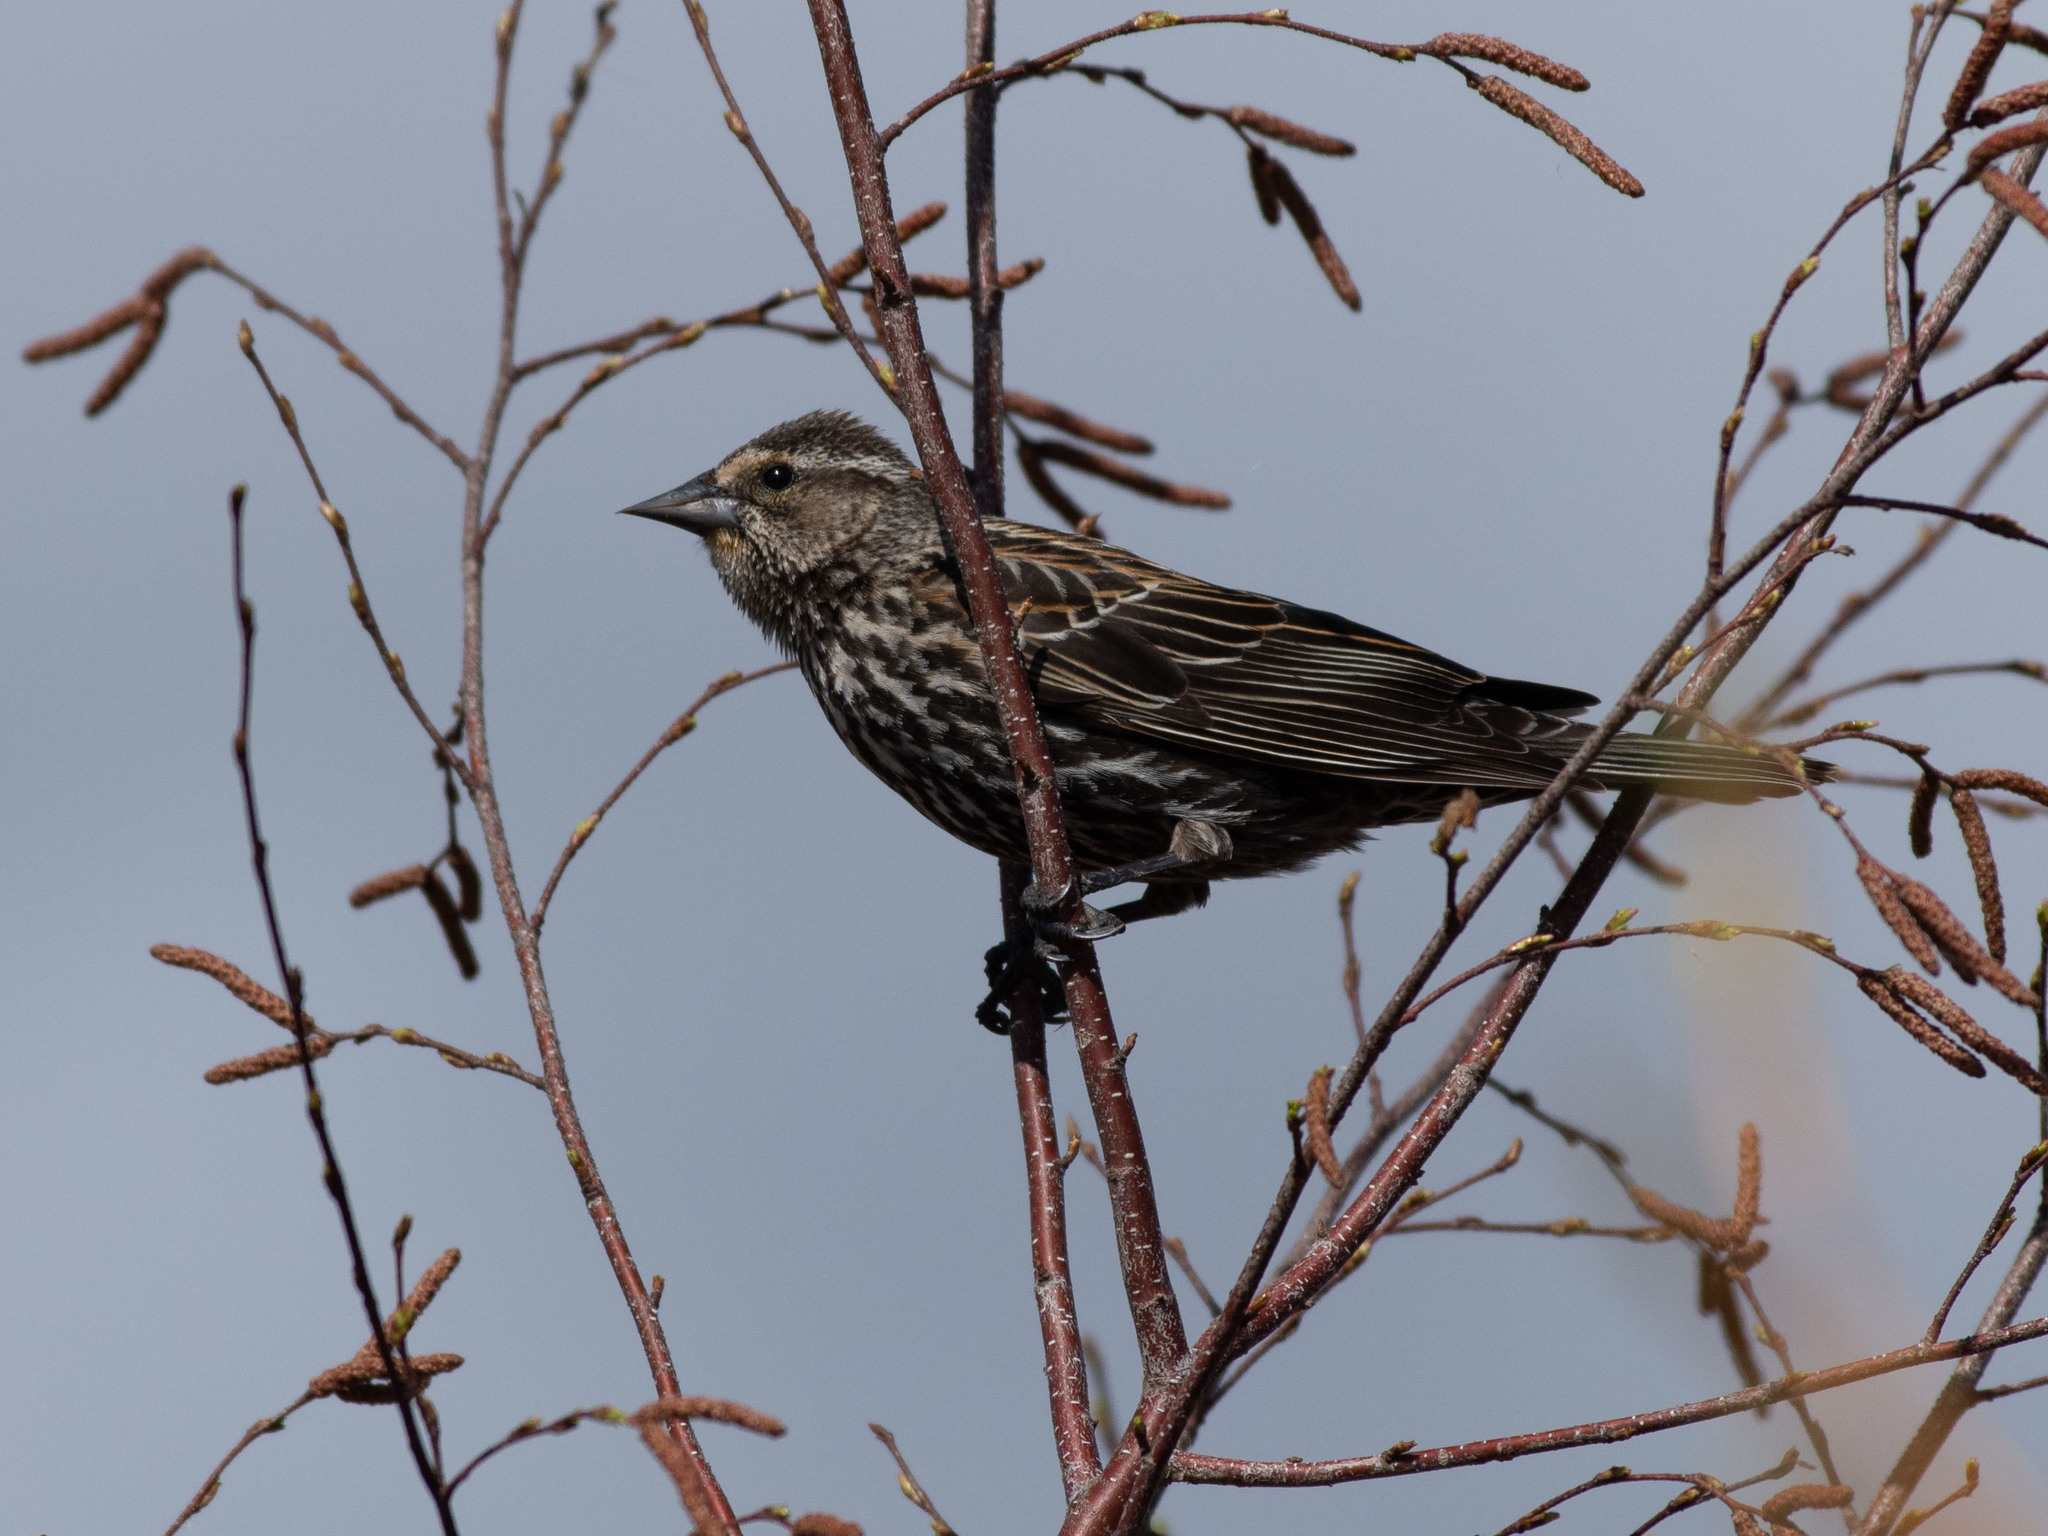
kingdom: Animalia
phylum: Chordata
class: Aves
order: Passeriformes
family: Icteridae
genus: Agelaius
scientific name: Agelaius phoeniceus
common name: Red-winged blackbird
